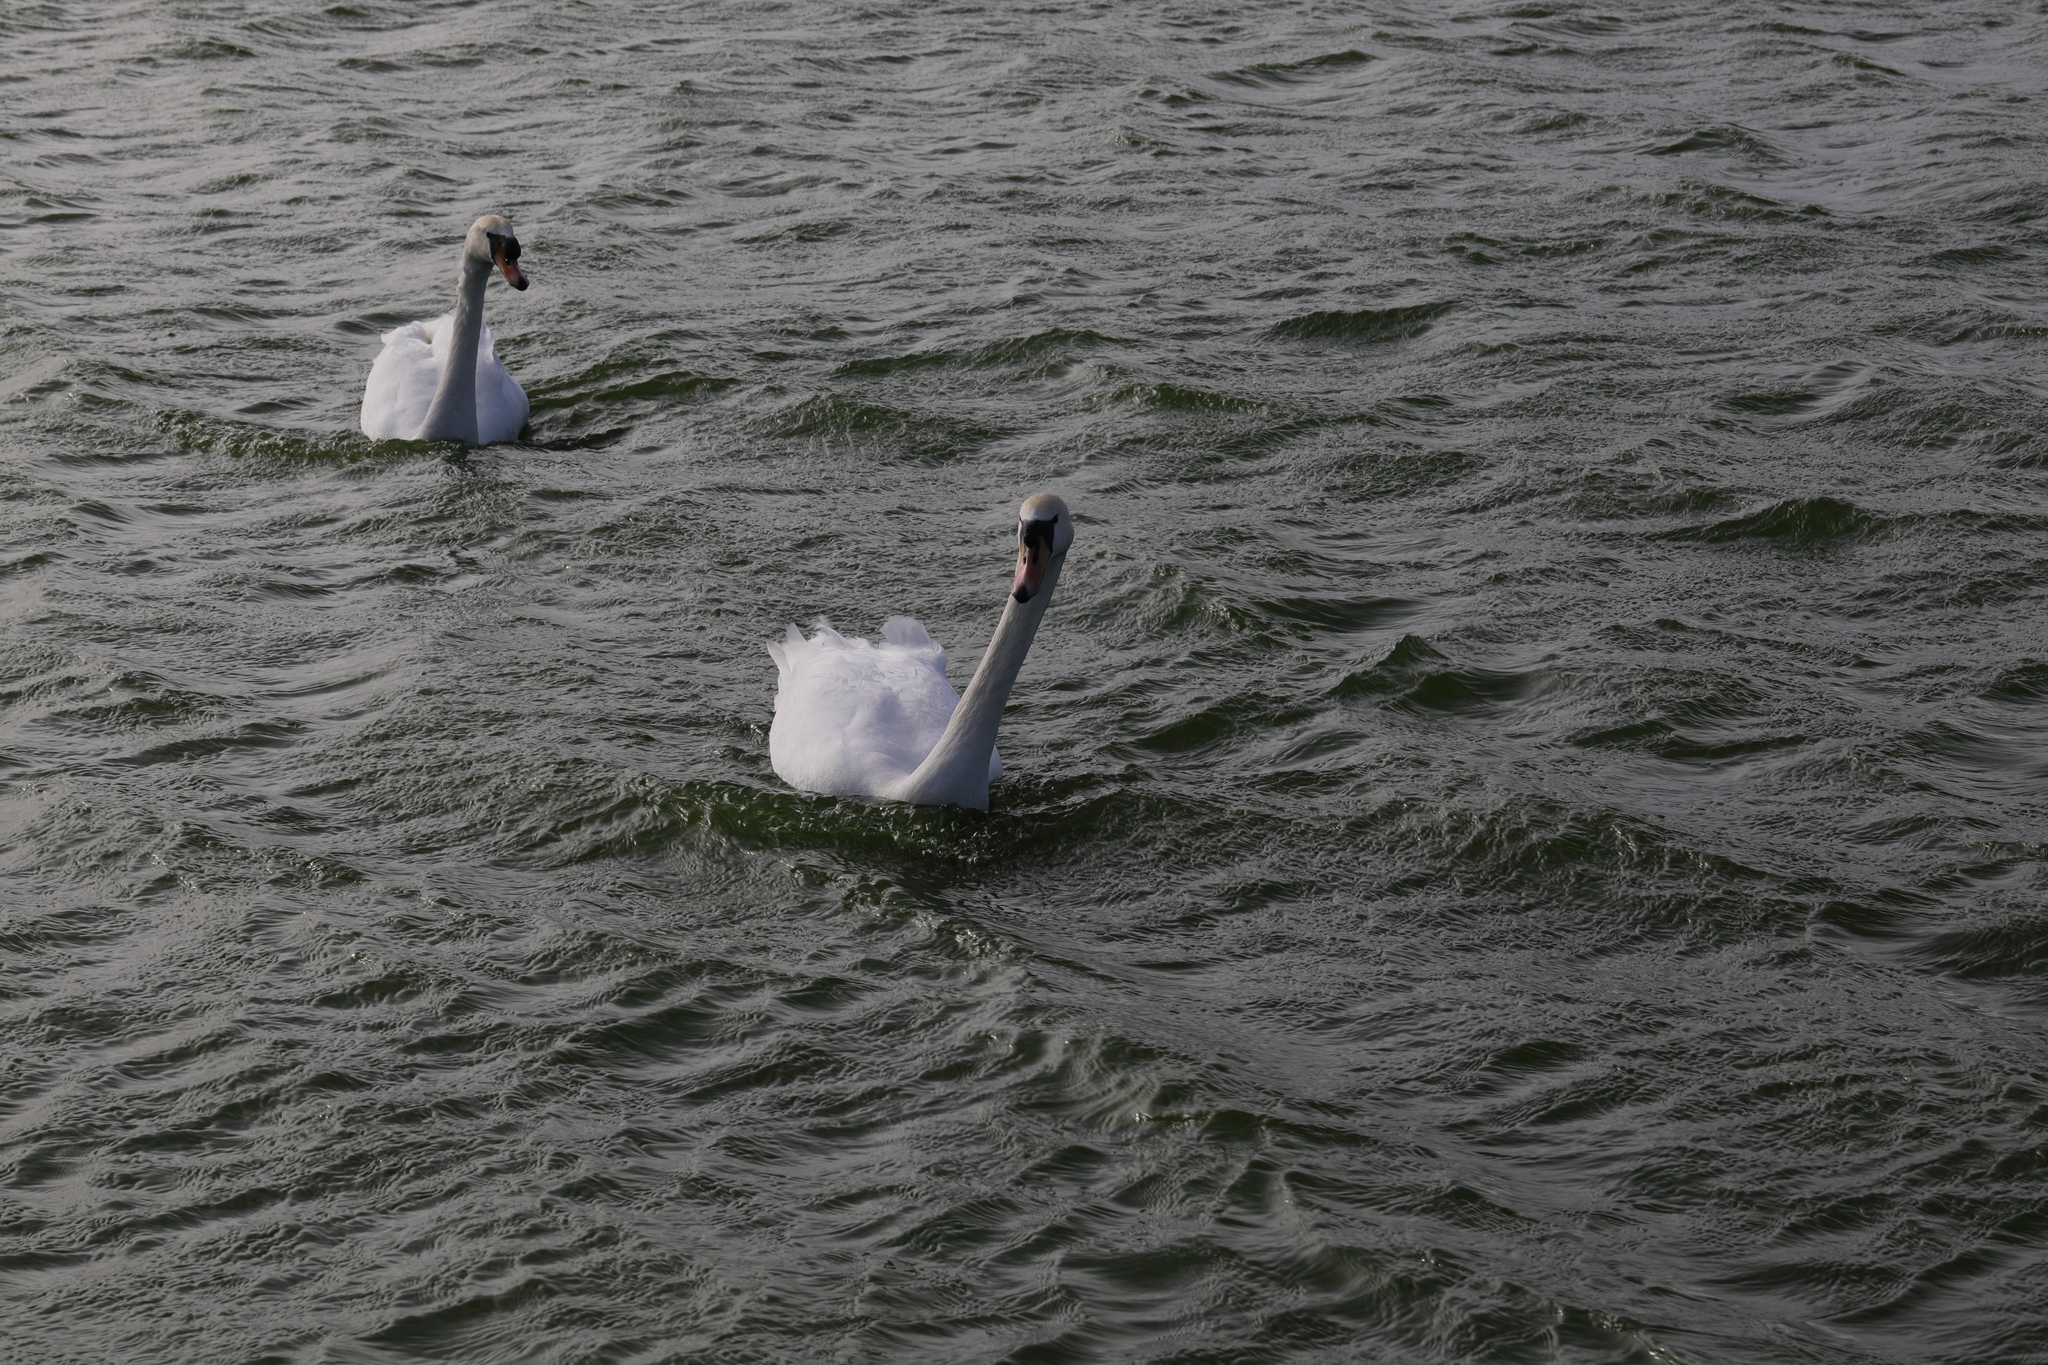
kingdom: Animalia
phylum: Chordata
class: Aves
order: Anseriformes
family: Anatidae
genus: Cygnus
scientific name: Cygnus olor
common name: Mute swan
